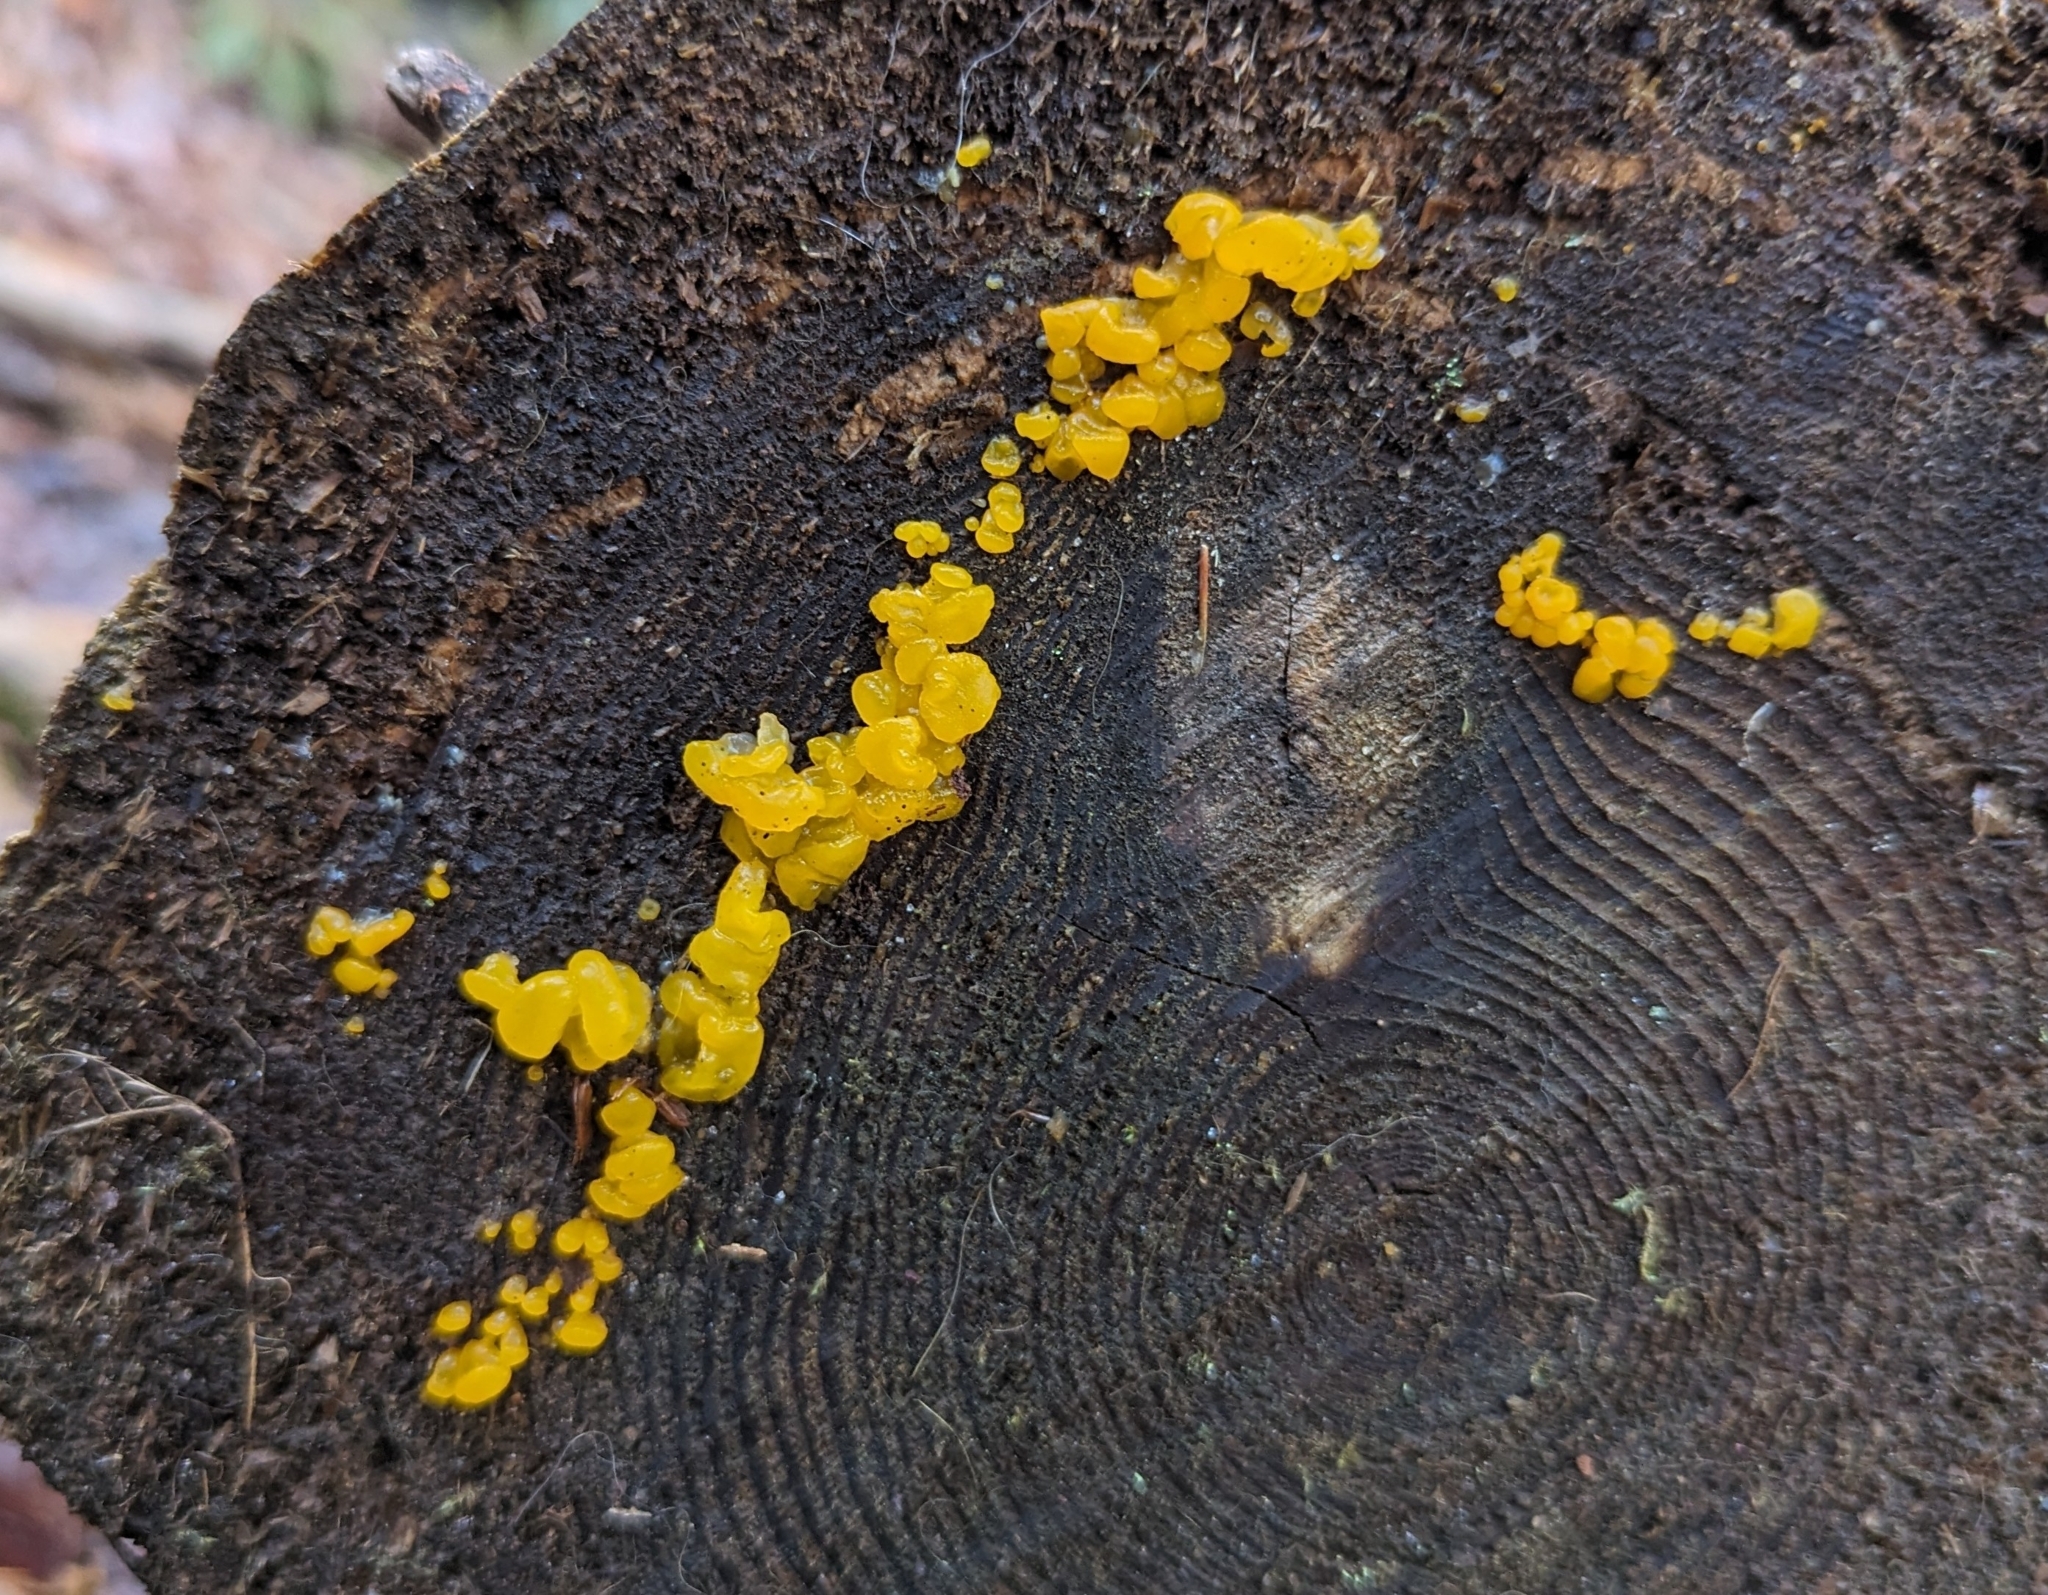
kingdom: Fungi
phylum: Basidiomycota
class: Dacrymycetes
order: Dacrymycetales
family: Dacrymycetaceae
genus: Dacrymyces
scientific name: Dacrymyces chrysospermus
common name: Orange jelly spot
